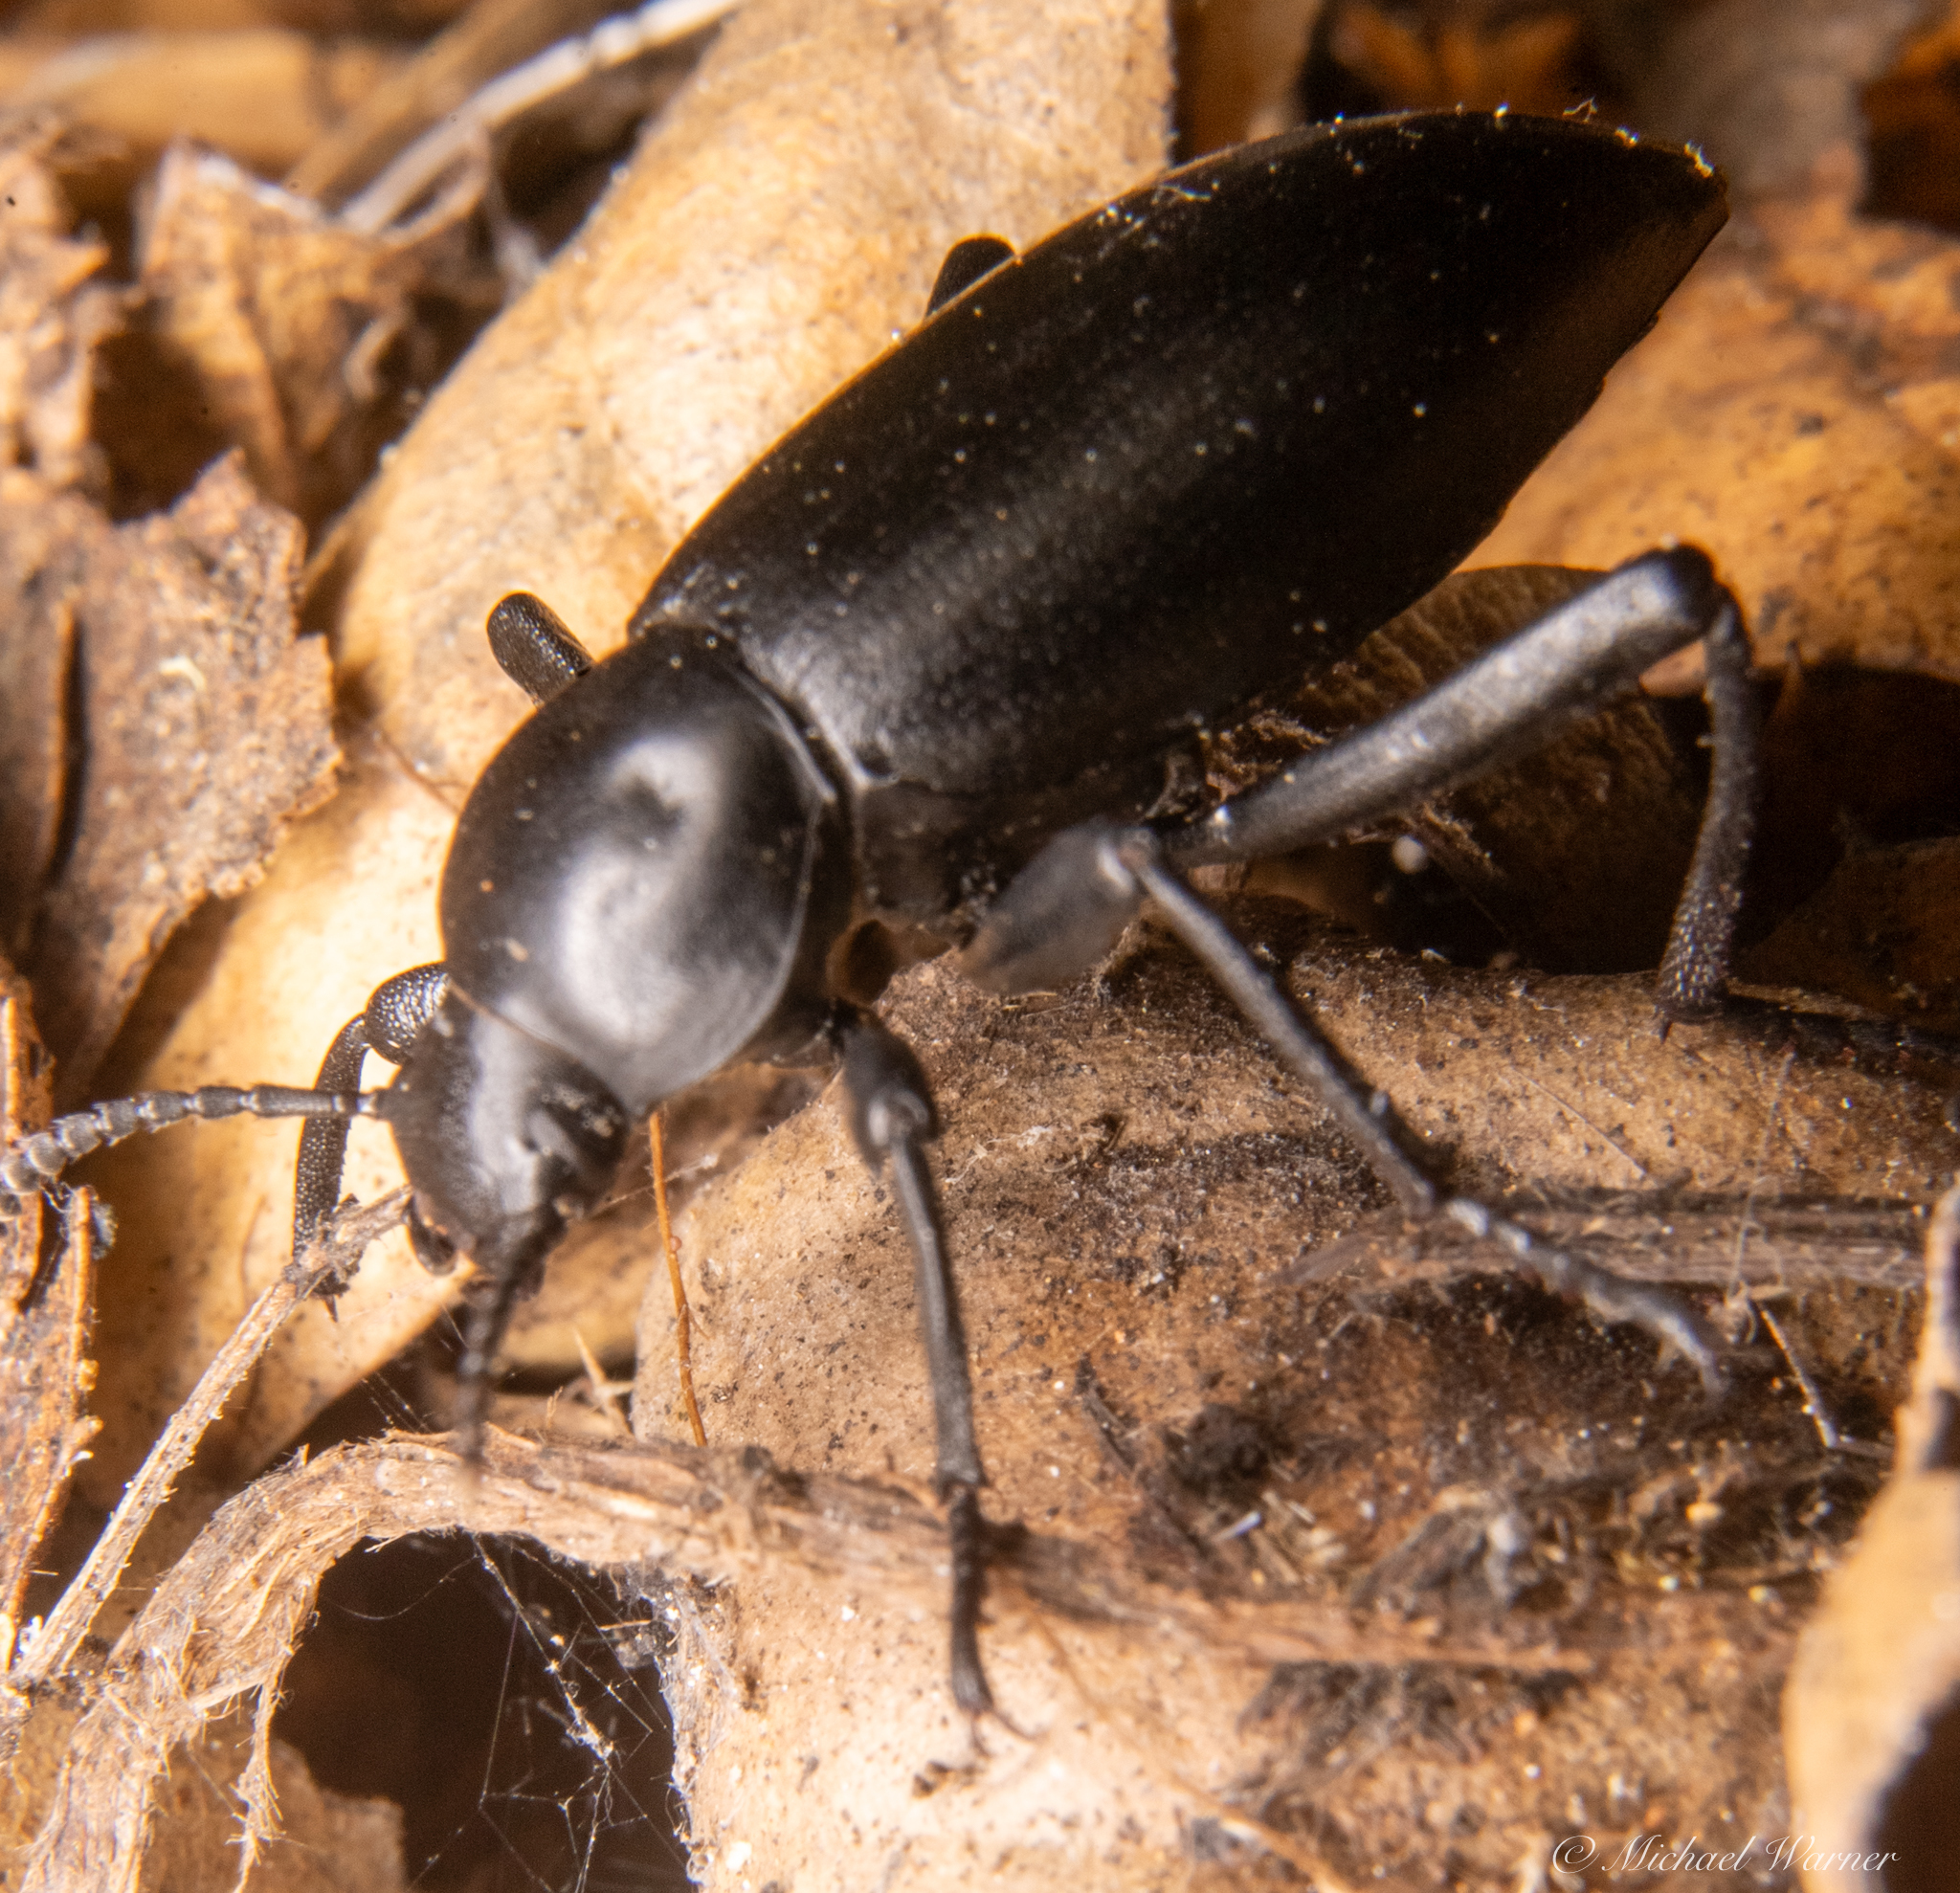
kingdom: Animalia
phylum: Arthropoda
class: Insecta
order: Coleoptera
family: Tenebrionidae
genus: Eleodes
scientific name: Eleodes dentipes
